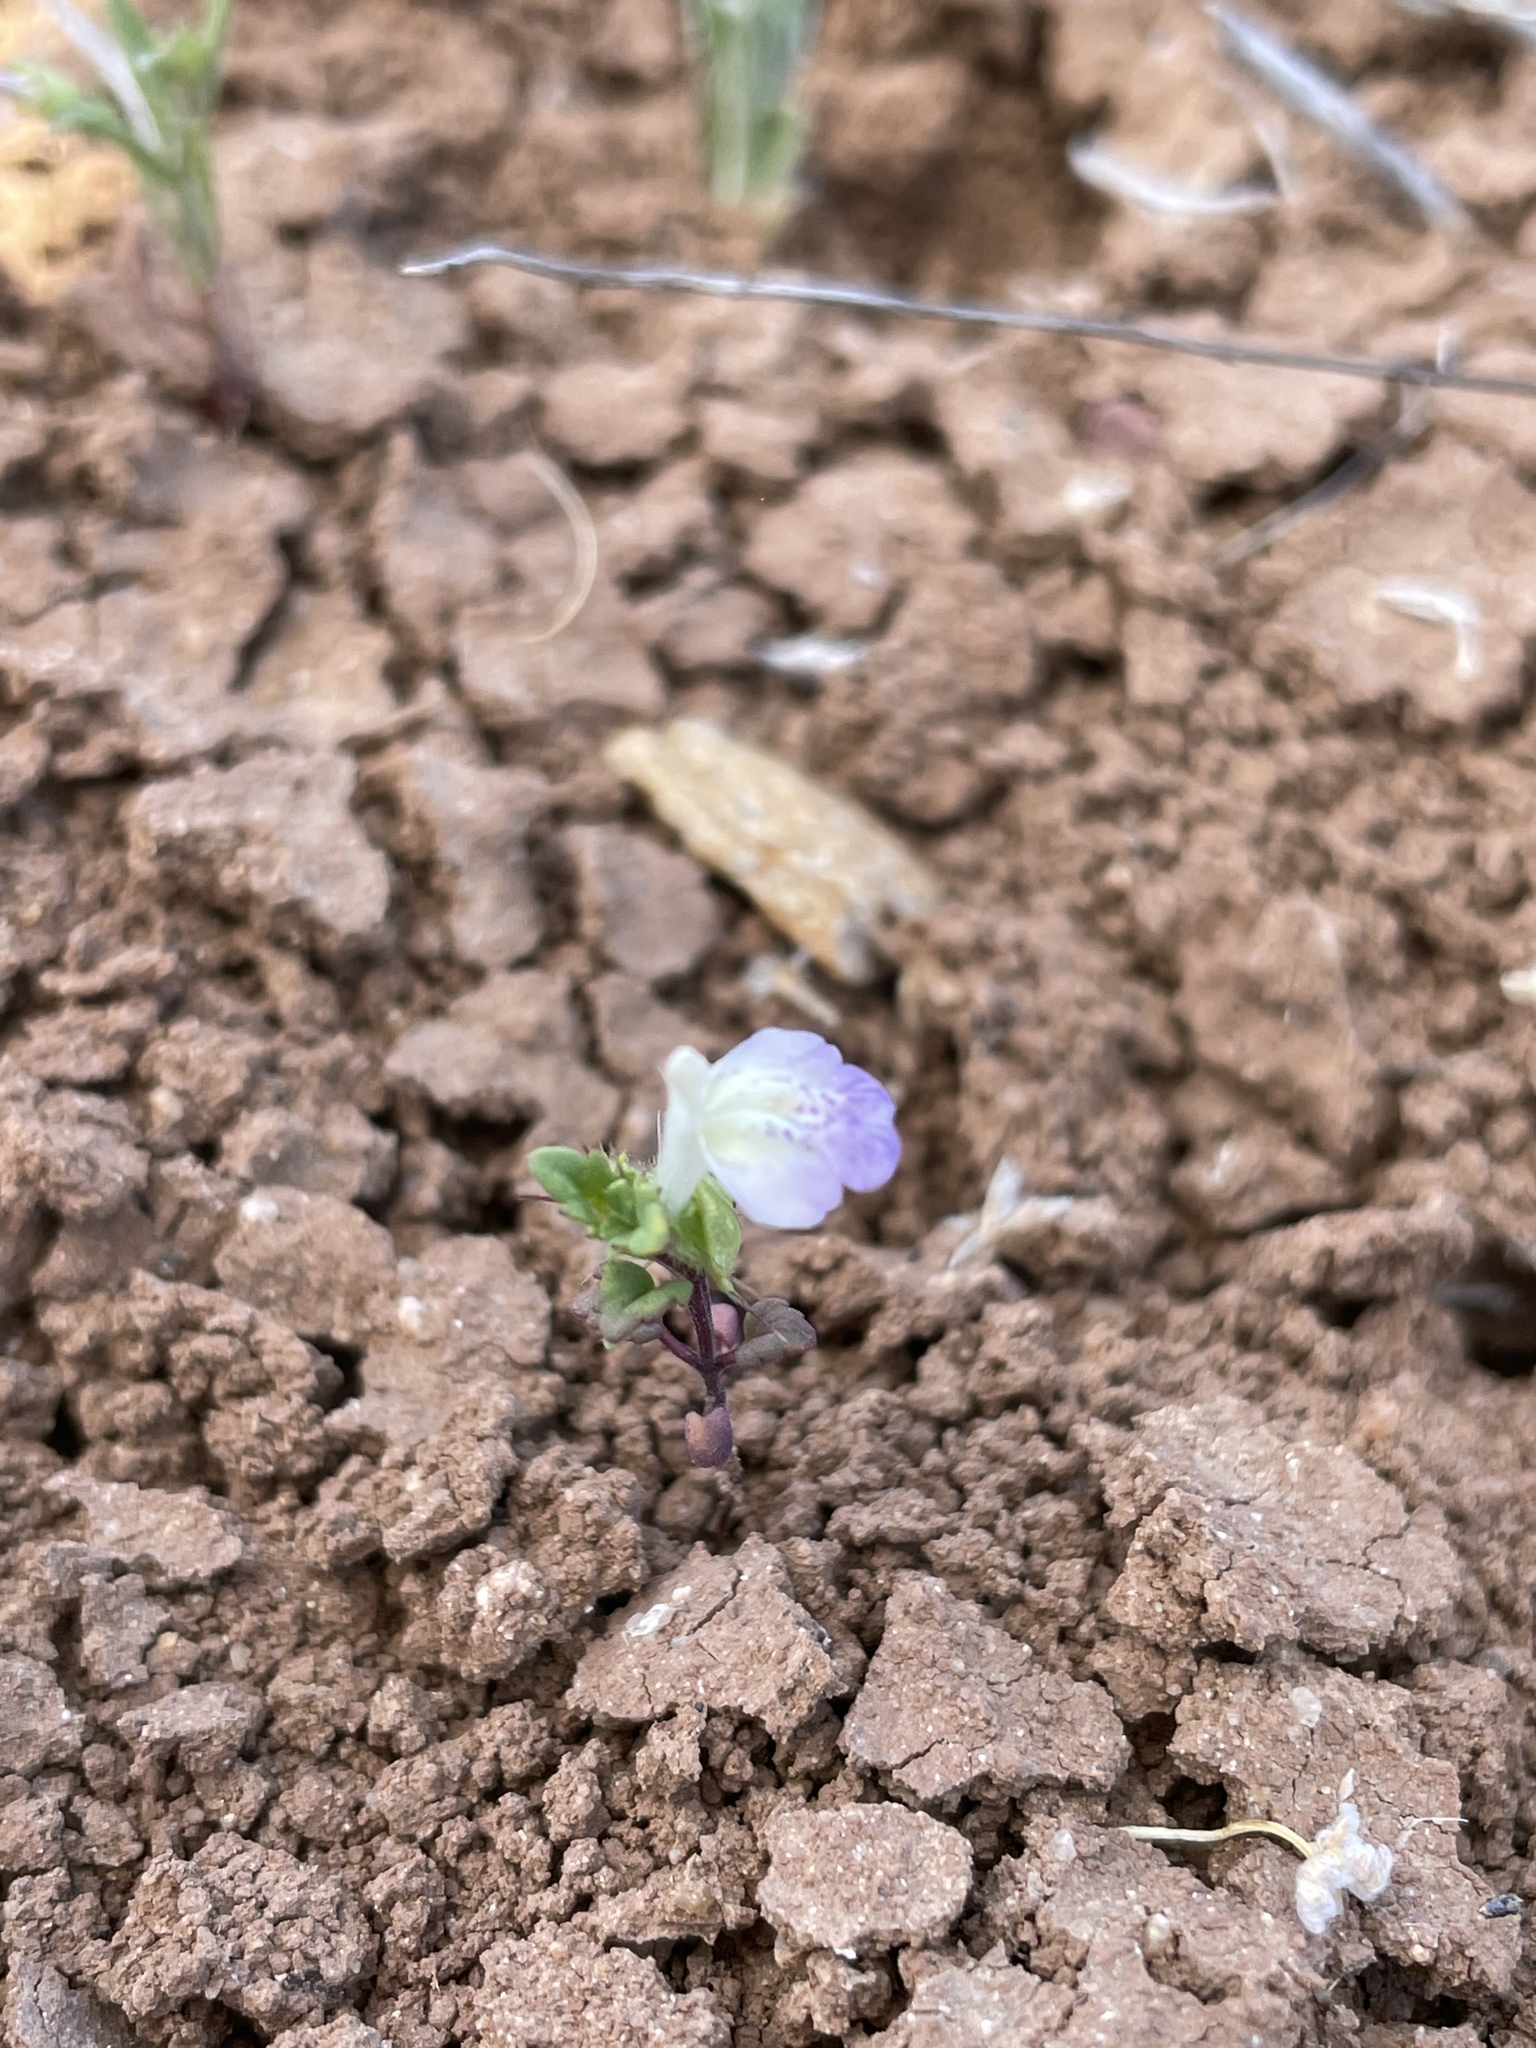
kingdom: Plantae
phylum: Tracheophyta
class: Magnoliopsida
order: Lamiales
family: Lamiaceae
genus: Acanthomintha
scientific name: Acanthomintha ilicifolia
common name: San diego thorn-mint
